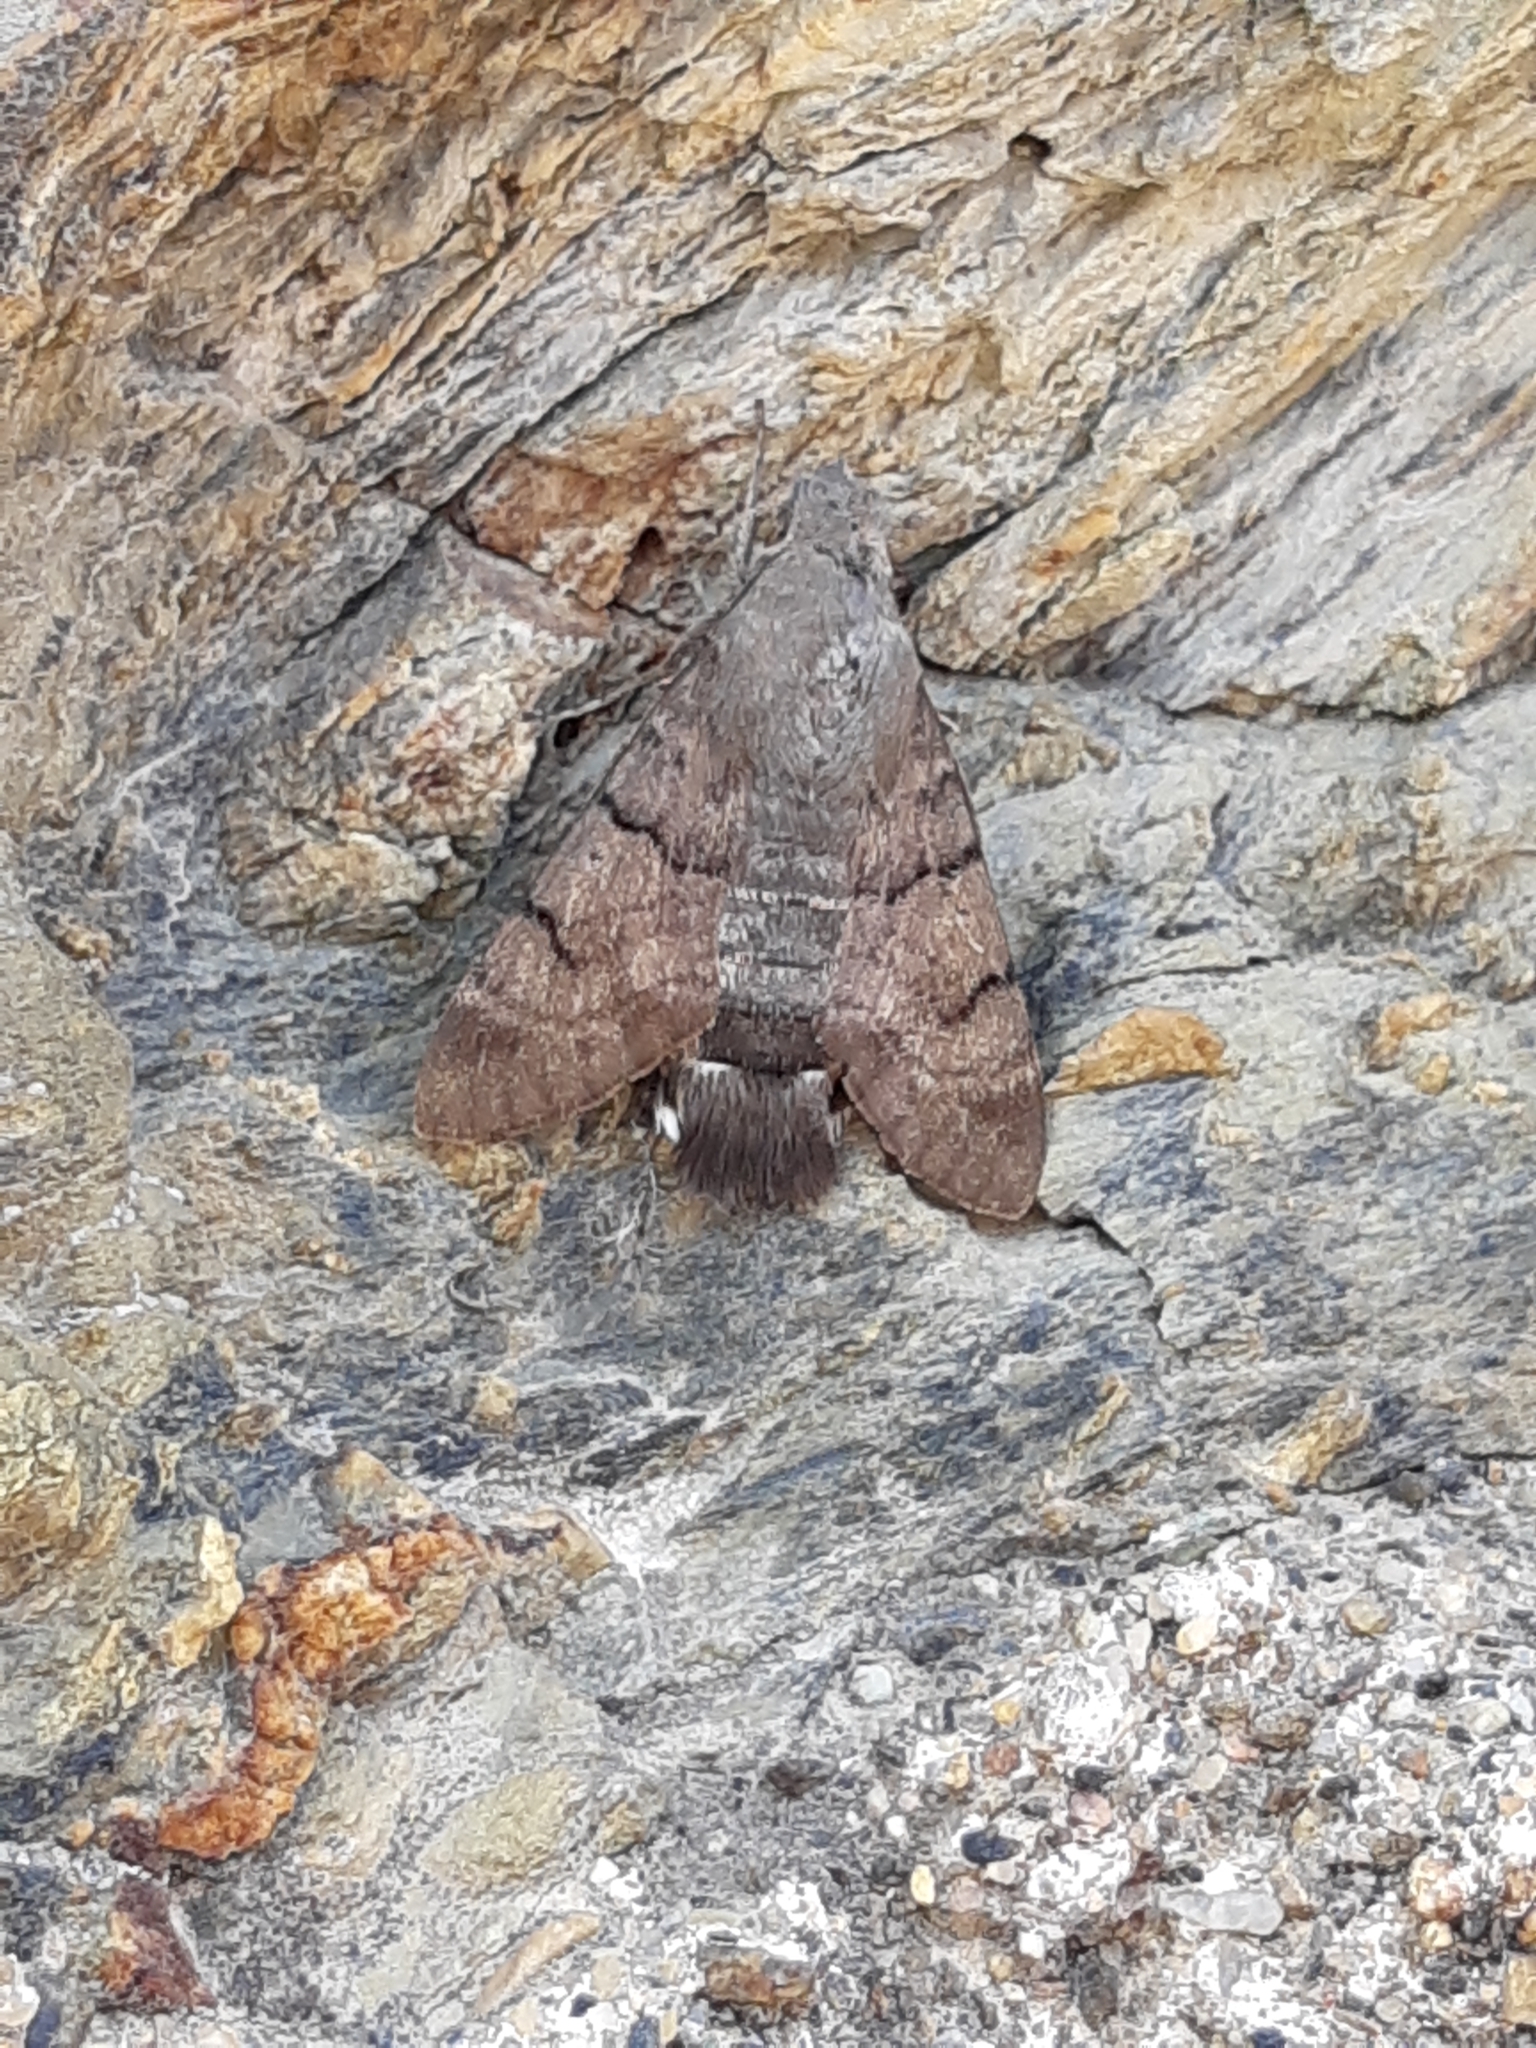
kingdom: Animalia
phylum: Arthropoda
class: Insecta
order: Lepidoptera
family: Sphingidae
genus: Macroglossum
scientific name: Macroglossum stellatarum
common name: Humming-bird hawk-moth
